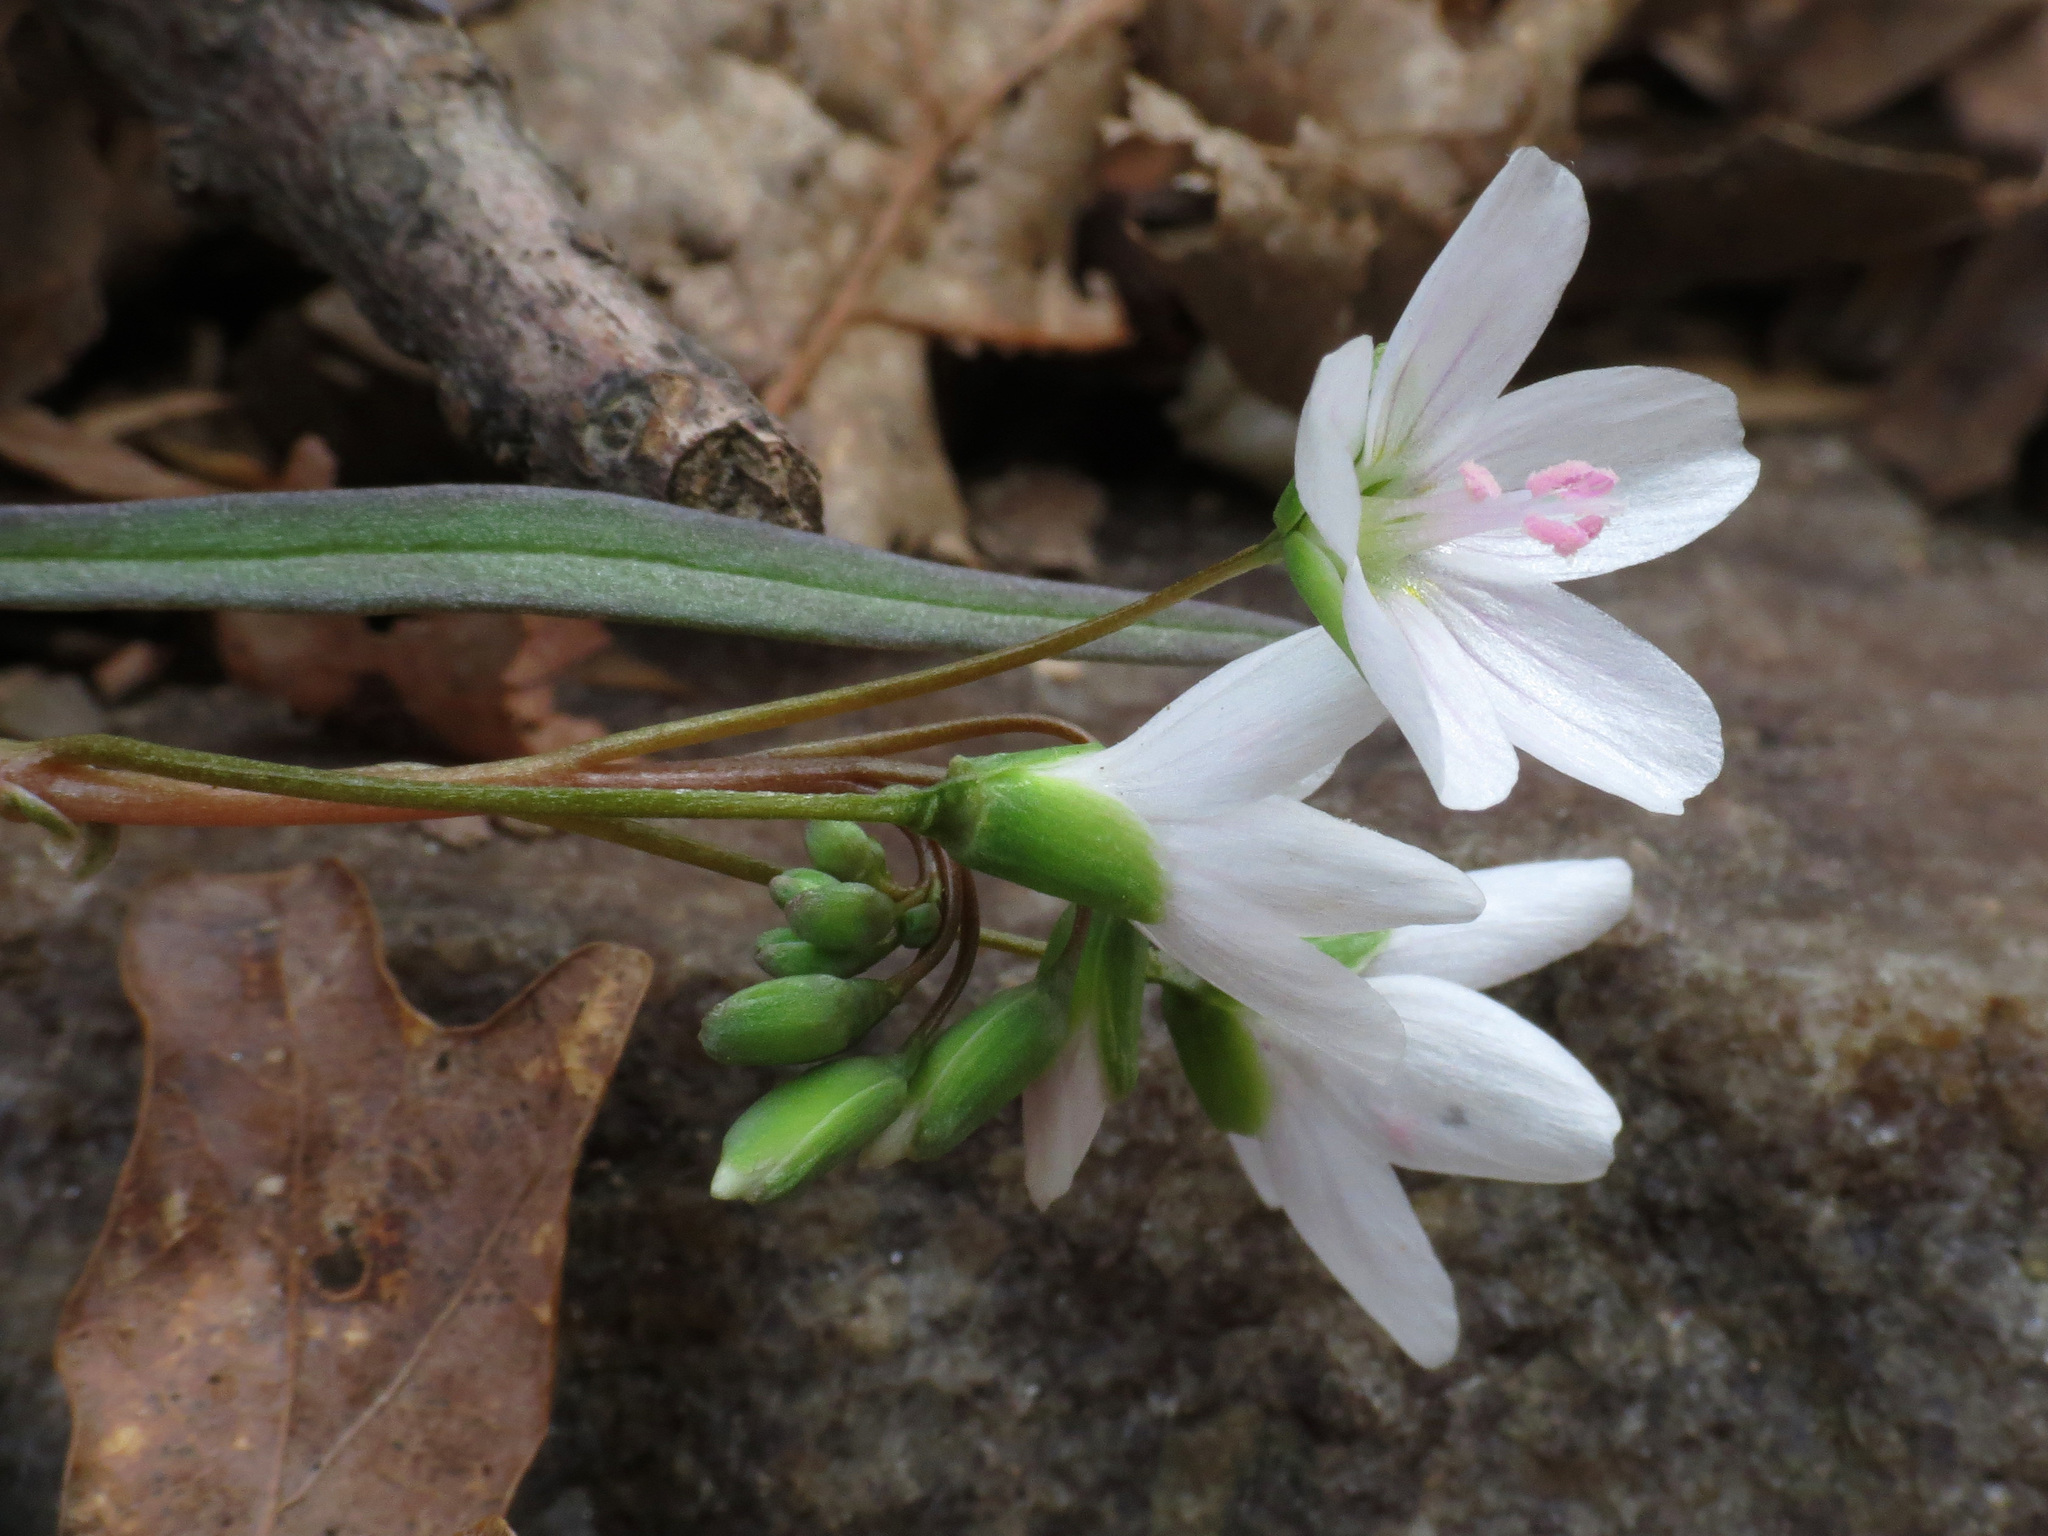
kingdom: Plantae
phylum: Tracheophyta
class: Magnoliopsida
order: Caryophyllales
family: Montiaceae
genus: Claytonia
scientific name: Claytonia virginica
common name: Virginia springbeauty
